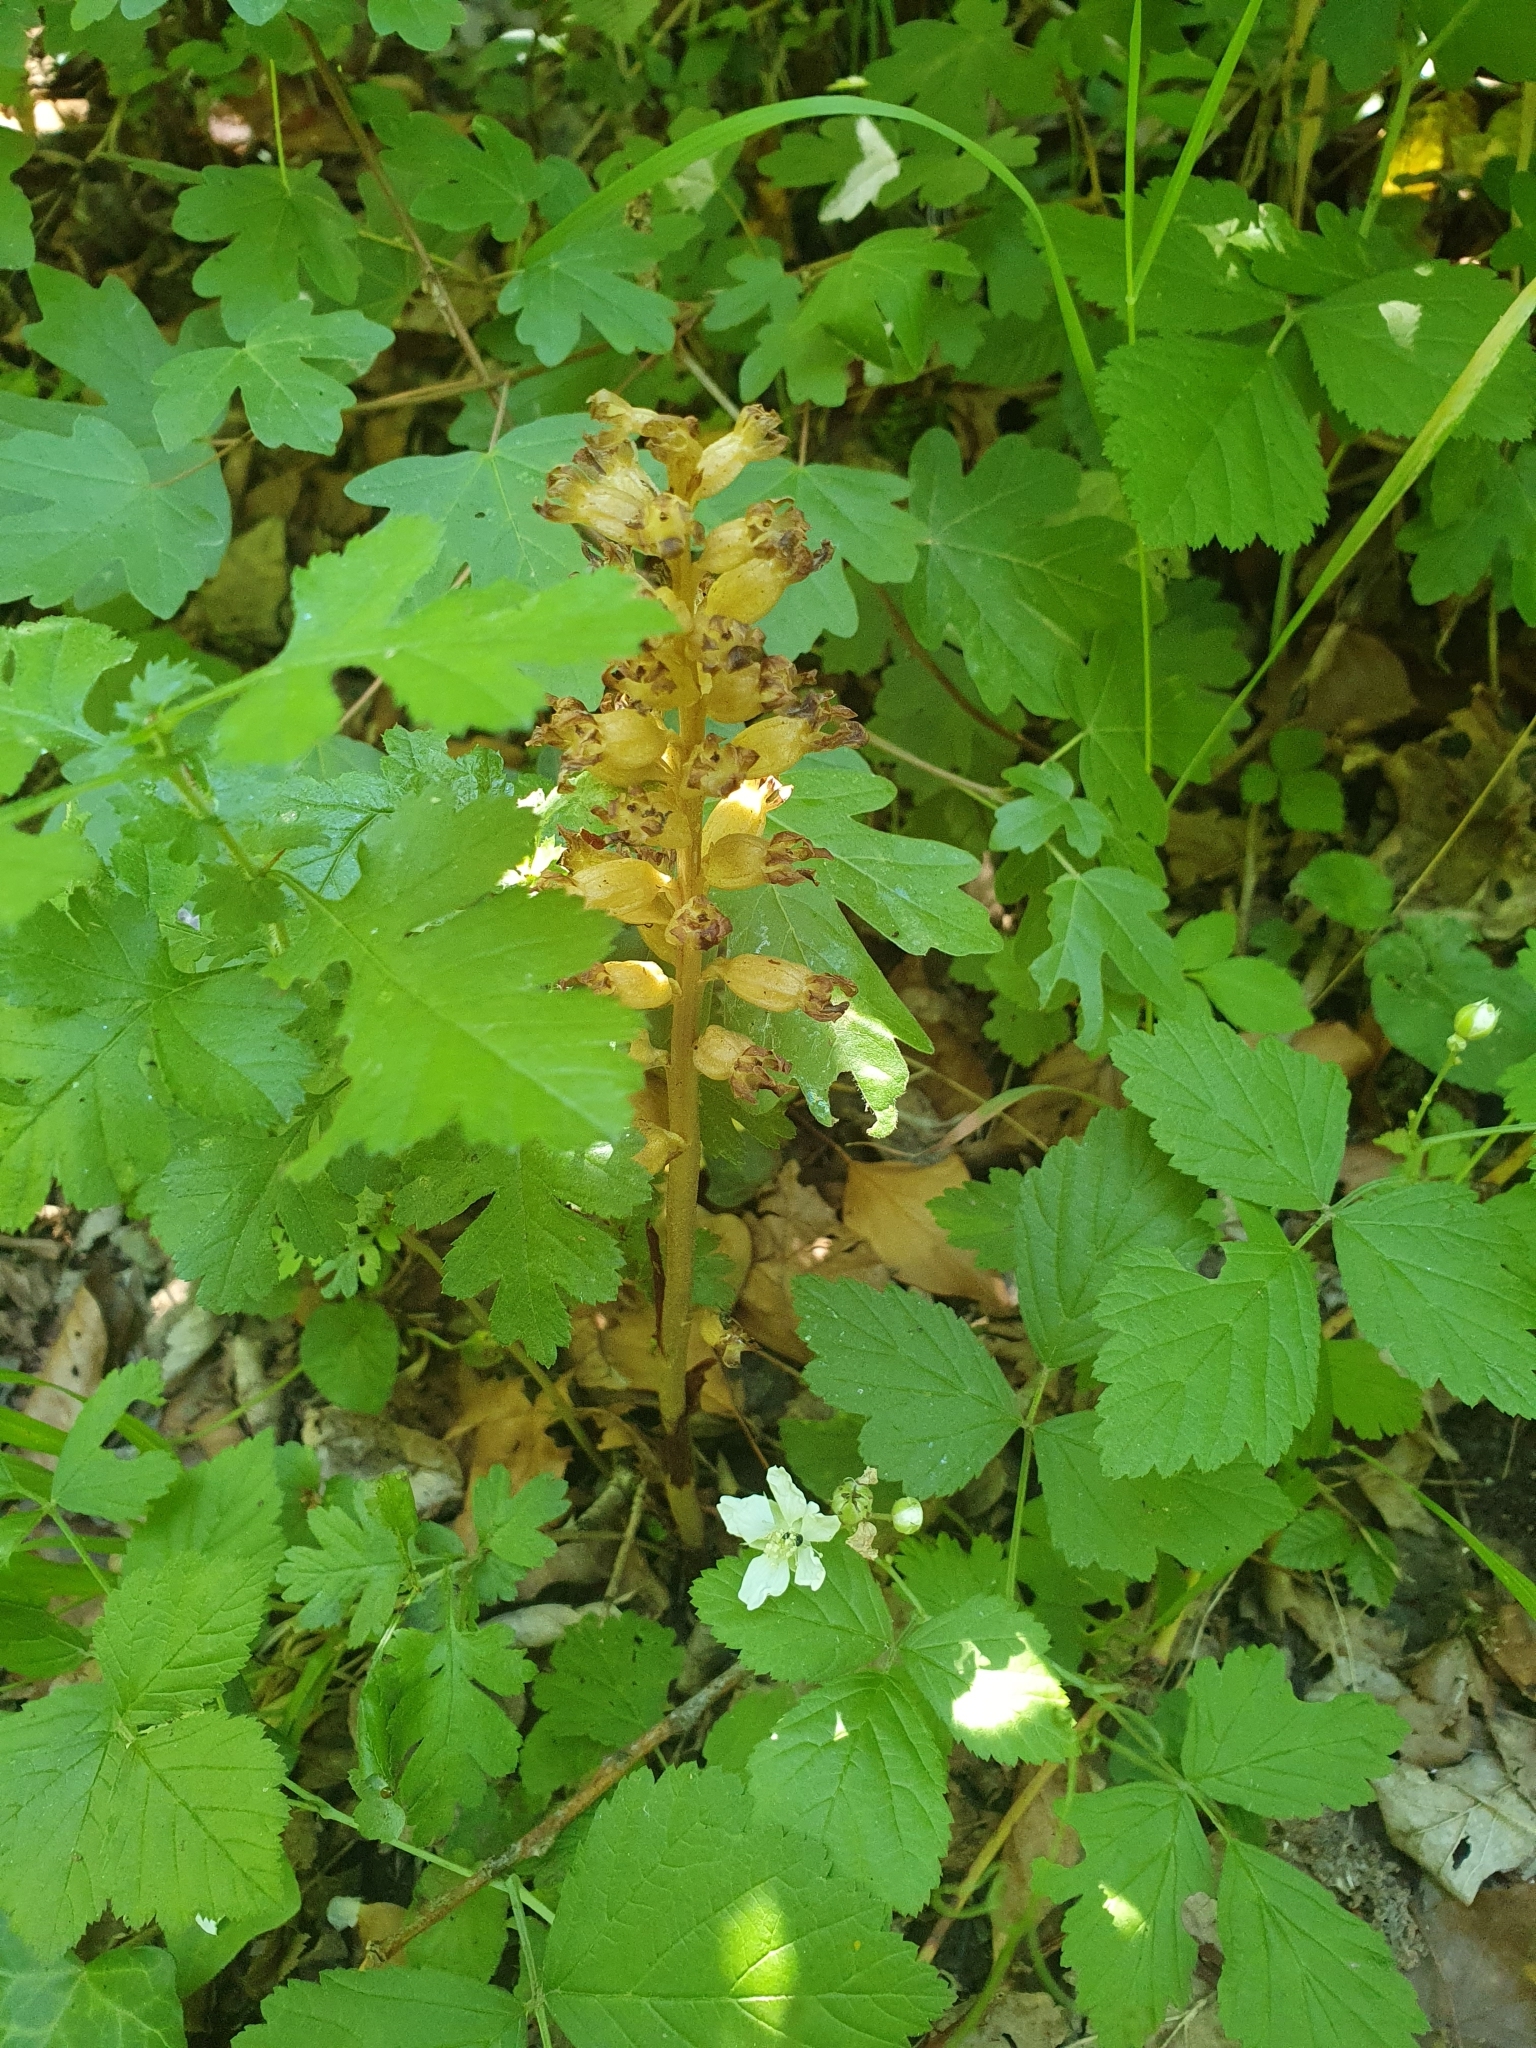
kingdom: Plantae
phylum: Tracheophyta
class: Liliopsida
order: Asparagales
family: Orchidaceae
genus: Neottia
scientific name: Neottia nidus-avis
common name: Bird's-nest orchid
